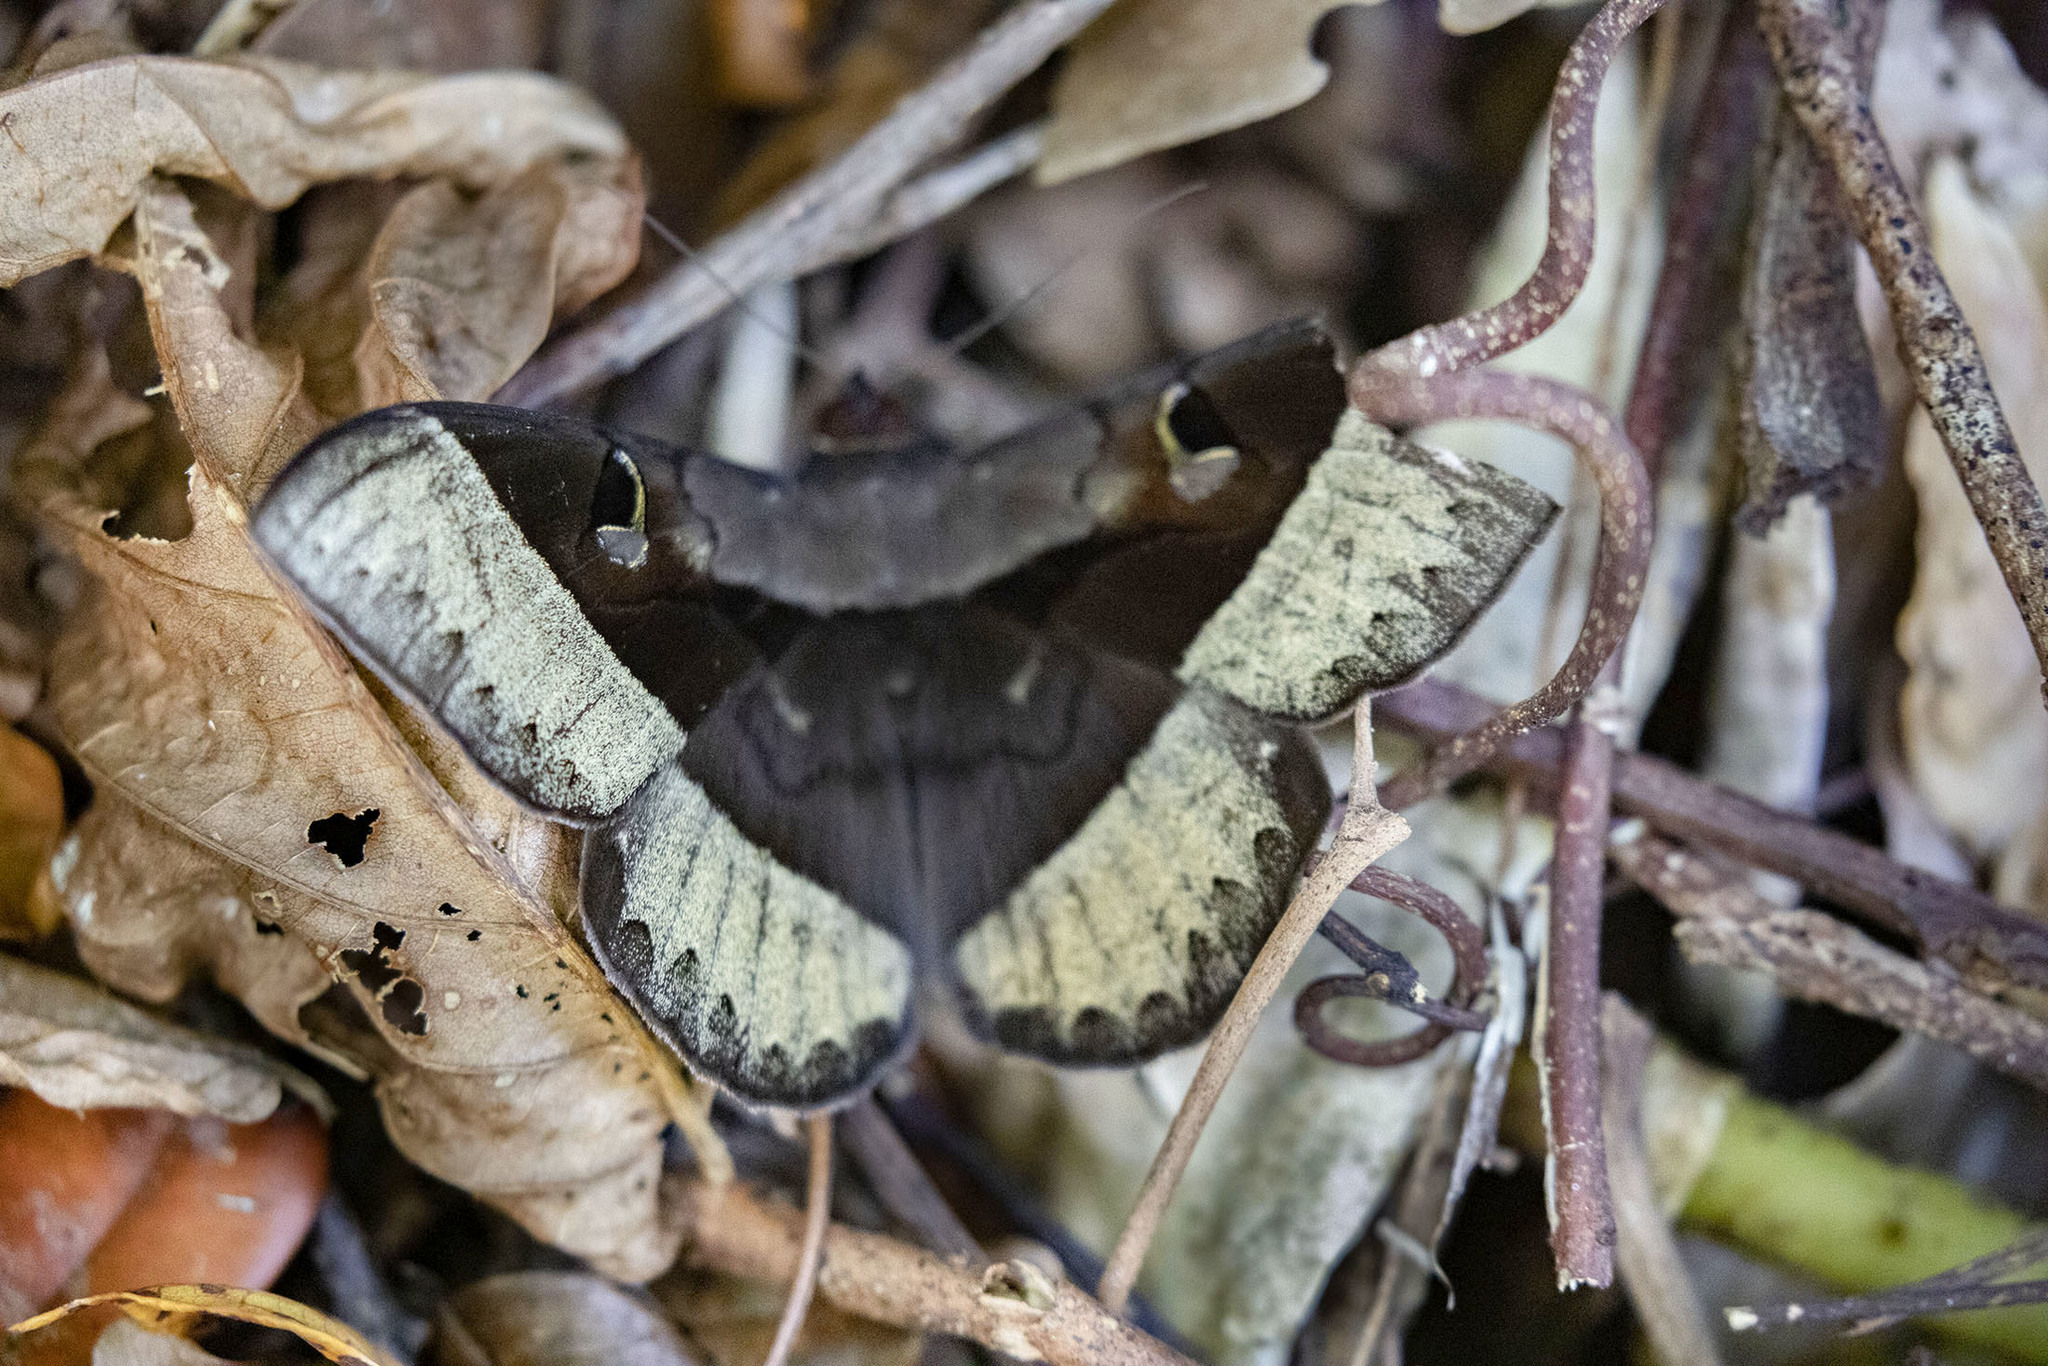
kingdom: Animalia
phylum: Arthropoda
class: Insecta
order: Lepidoptera
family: Erebidae
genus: Cyligramma
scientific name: Cyligramma joa
